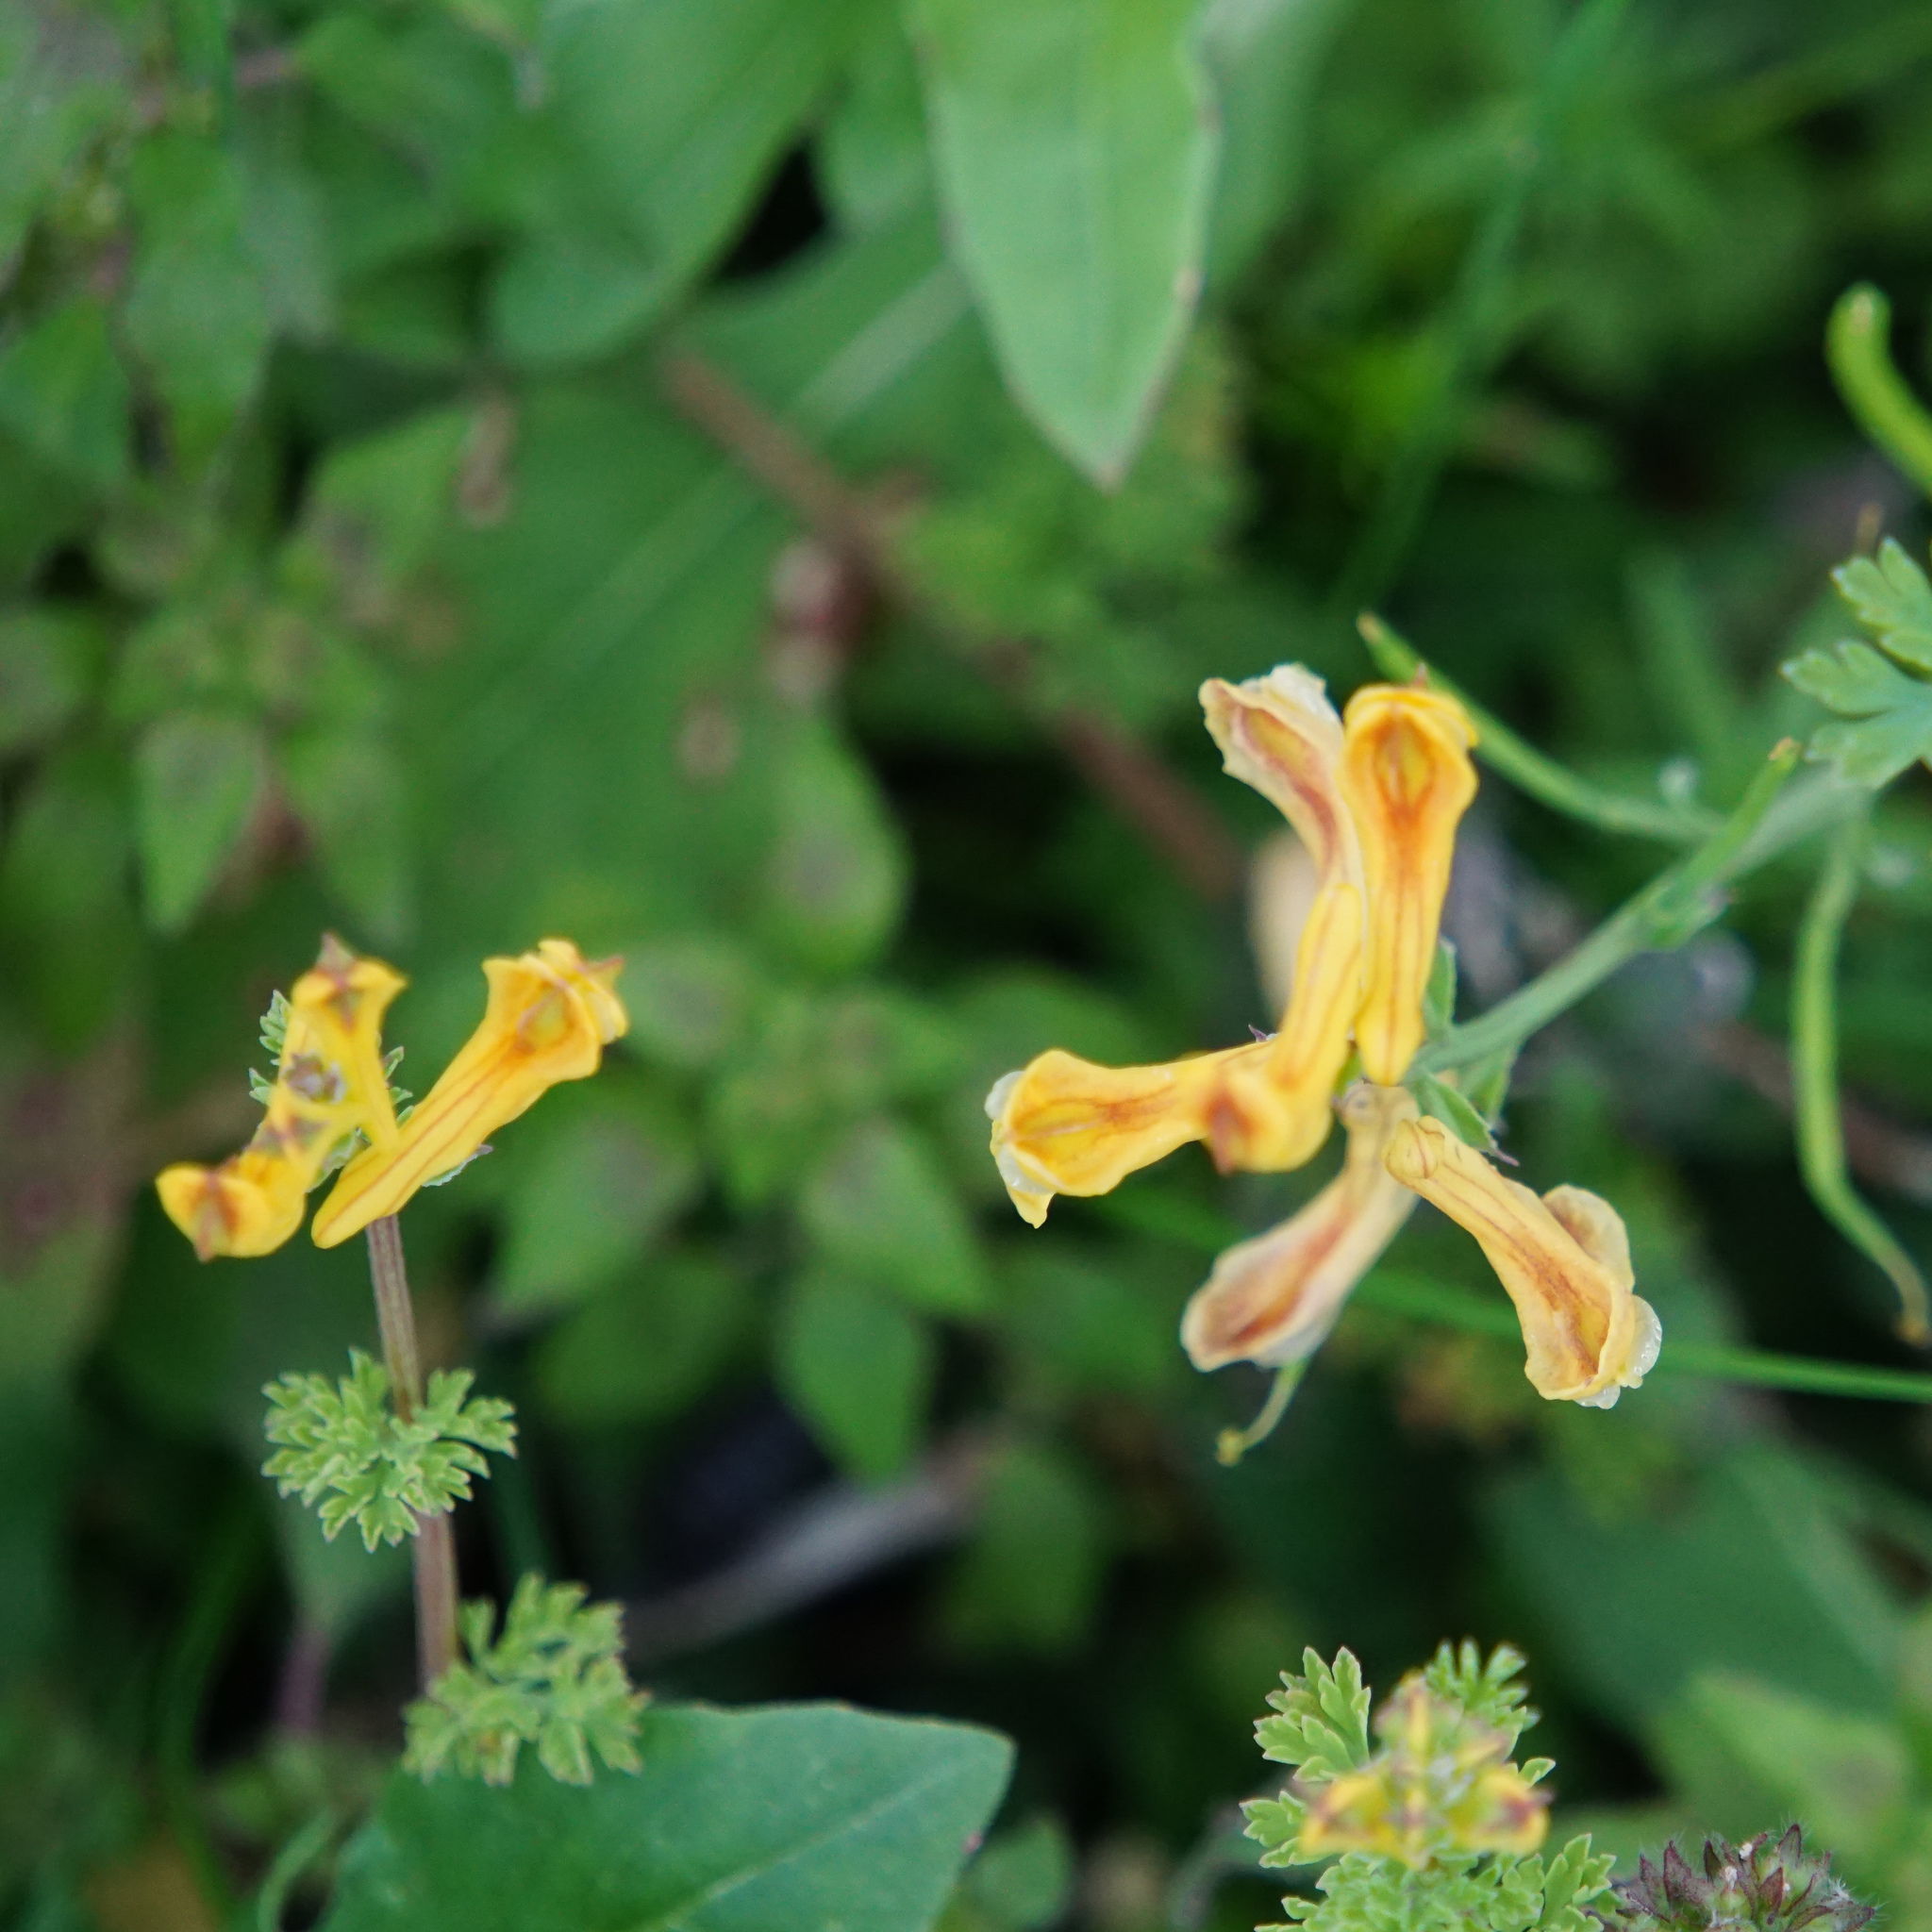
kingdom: Plantae
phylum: Tracheophyta
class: Magnoliopsida
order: Ranunculales
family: Papaveraceae
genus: Corydalis
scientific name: Corydalis aurea
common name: Golden corydalis
